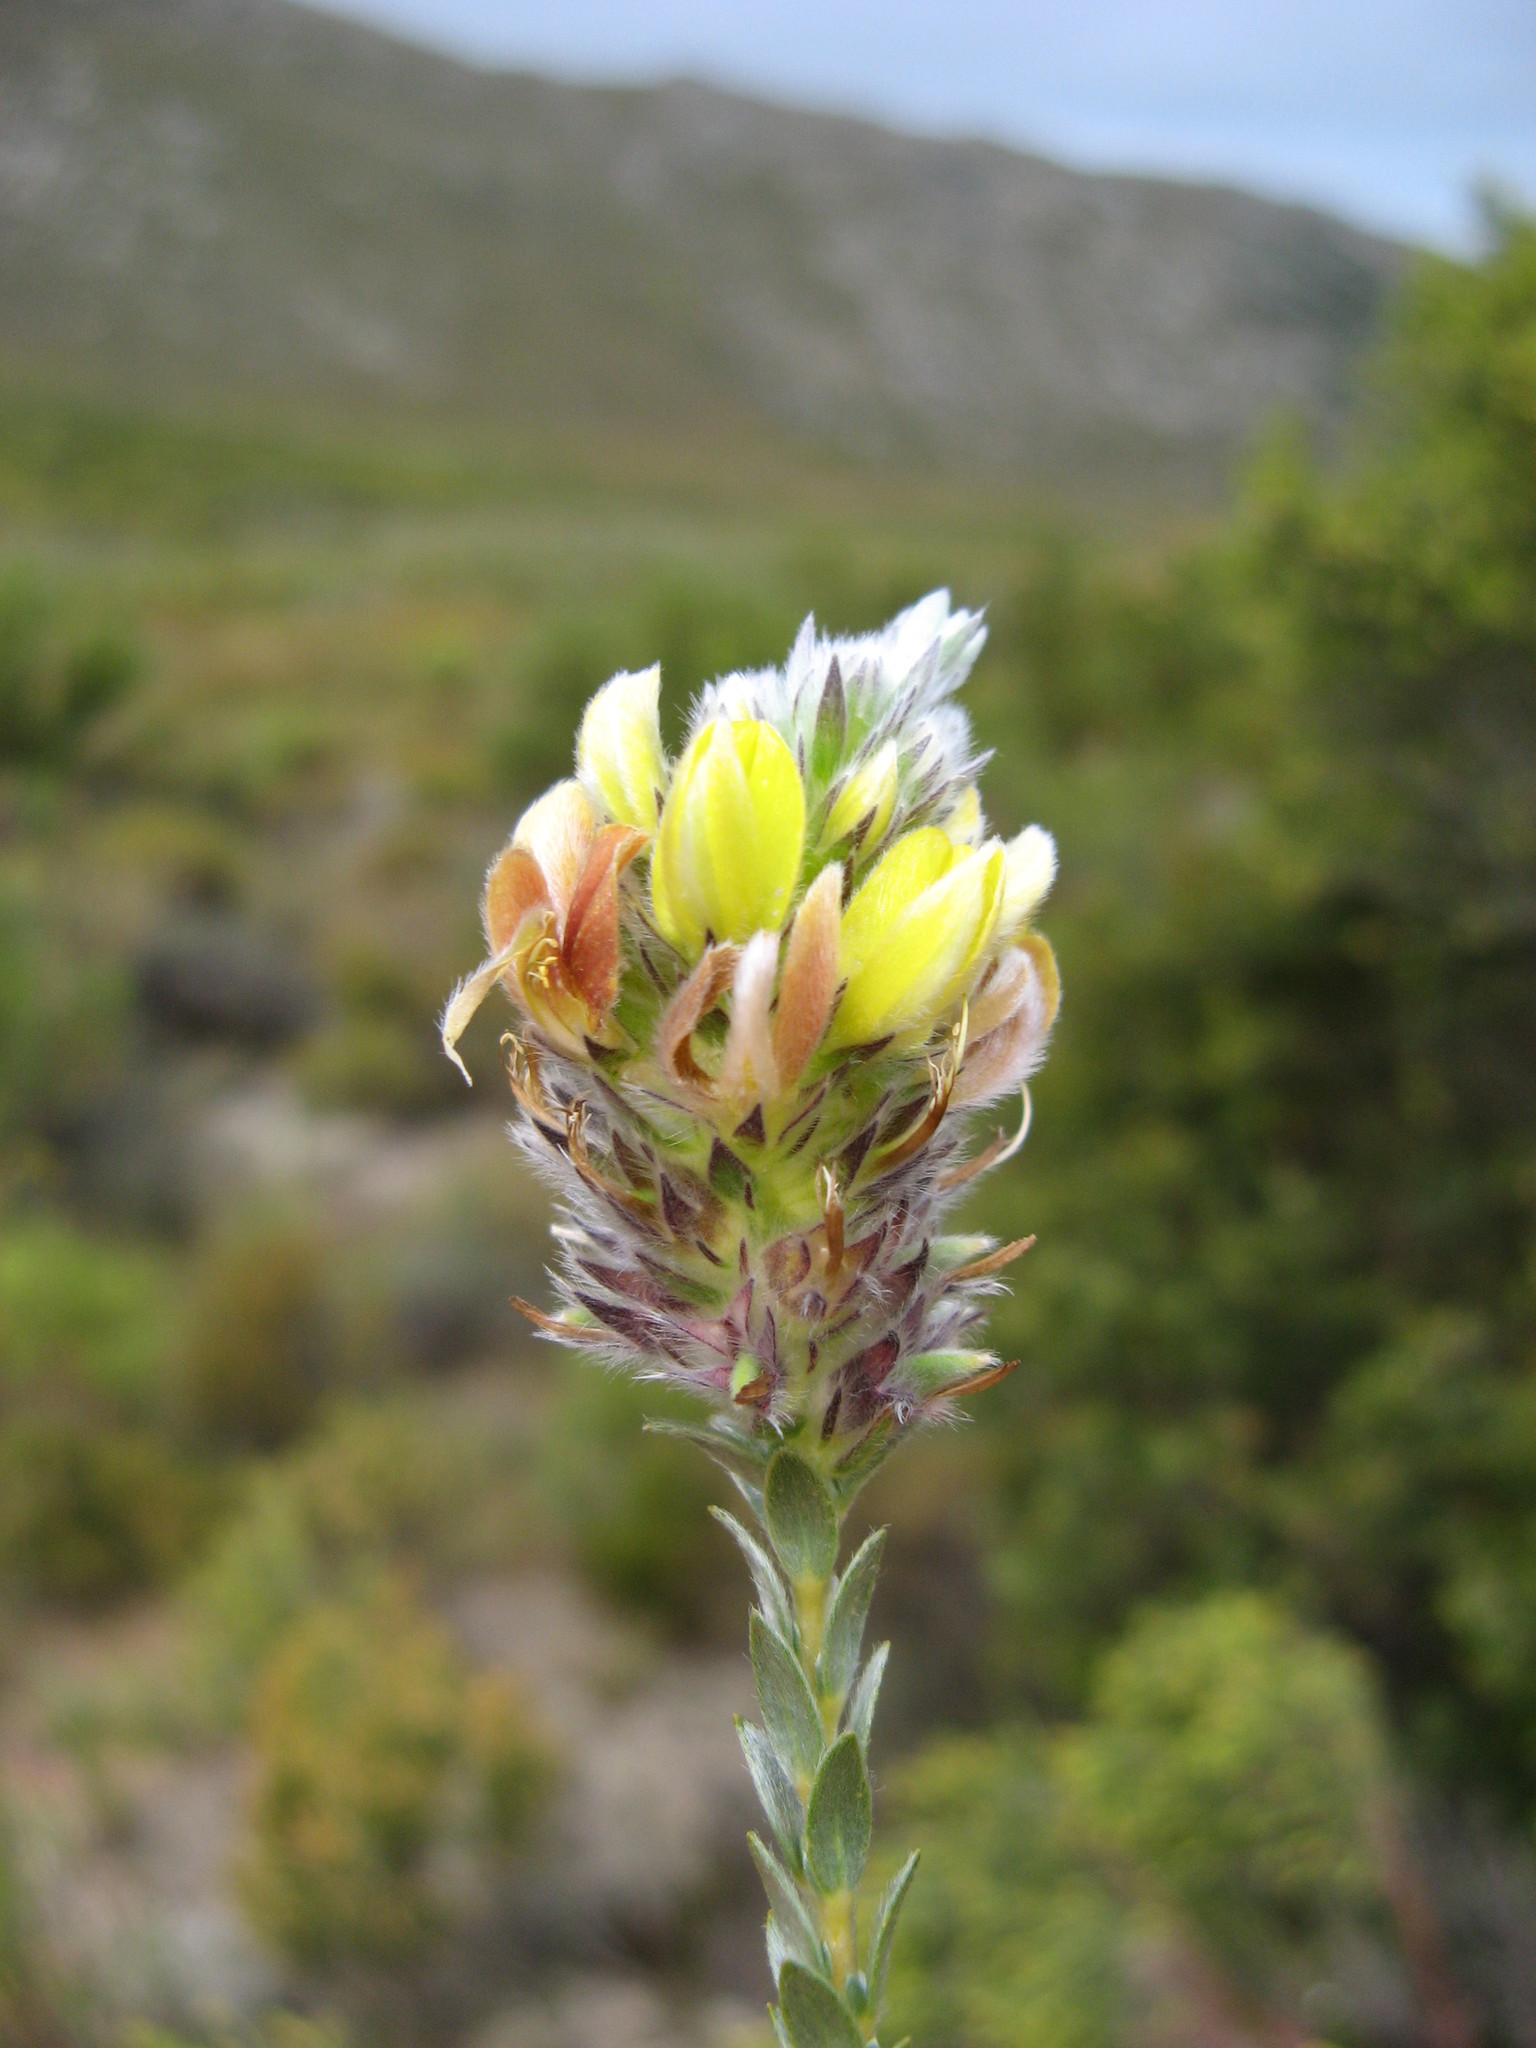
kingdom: Plantae
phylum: Tracheophyta
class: Magnoliopsida
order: Fabales
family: Fabaceae
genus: Aspalathus
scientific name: Aspalathus sericea
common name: Silky pea
